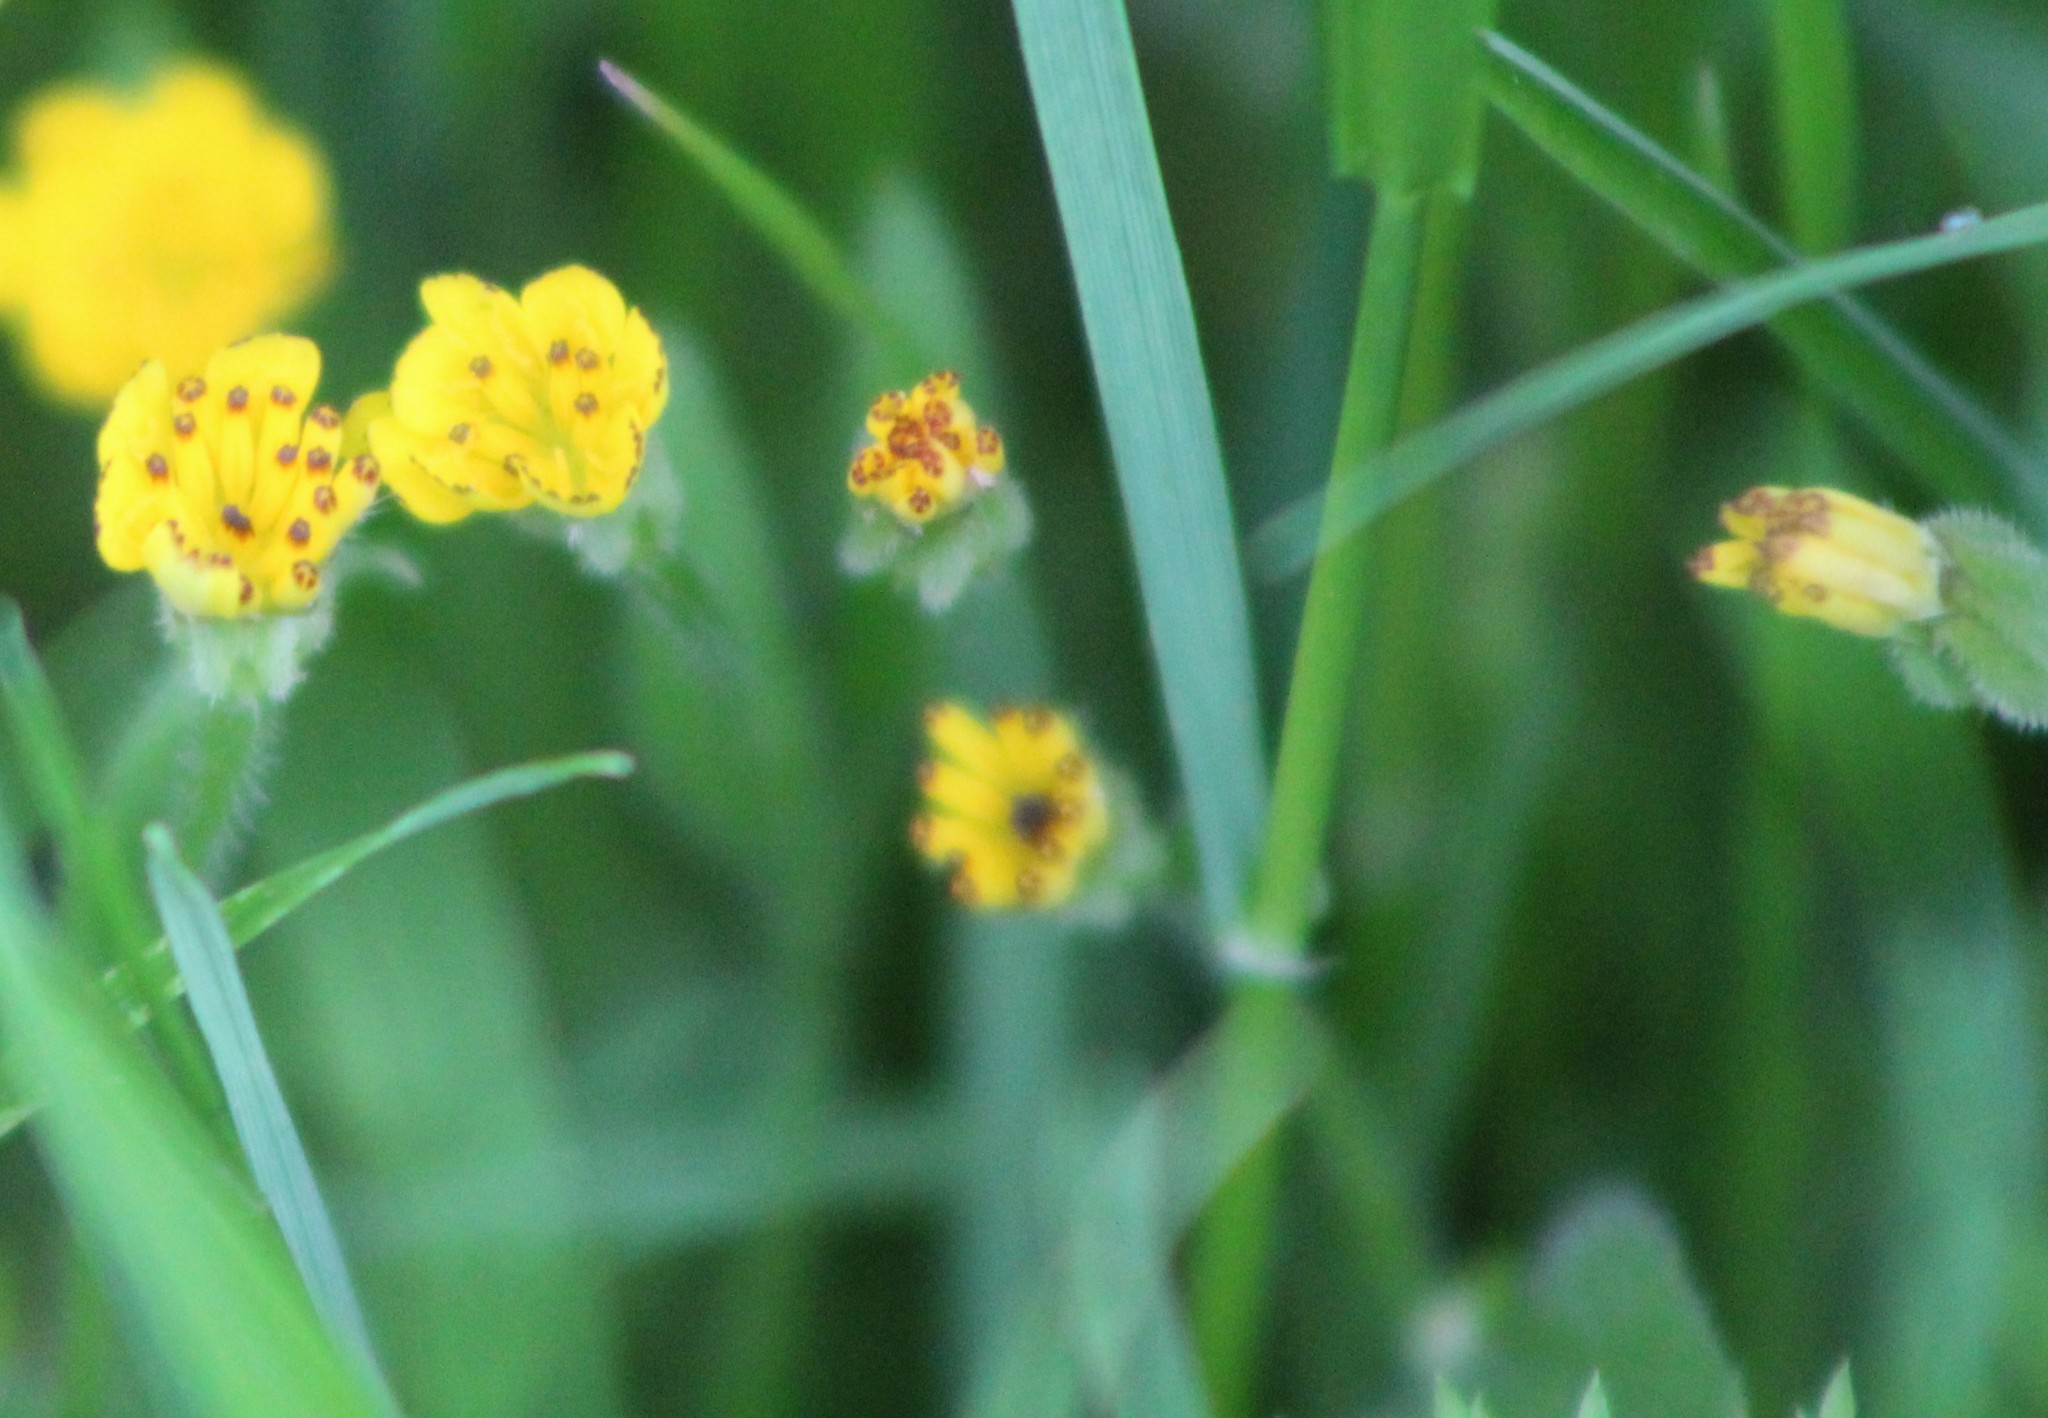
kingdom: Plantae
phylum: Tracheophyta
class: Magnoliopsida
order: Asterales
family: Asteraceae
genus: Hedypnois
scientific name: Hedypnois rhagadioloides
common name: Cretan weed
